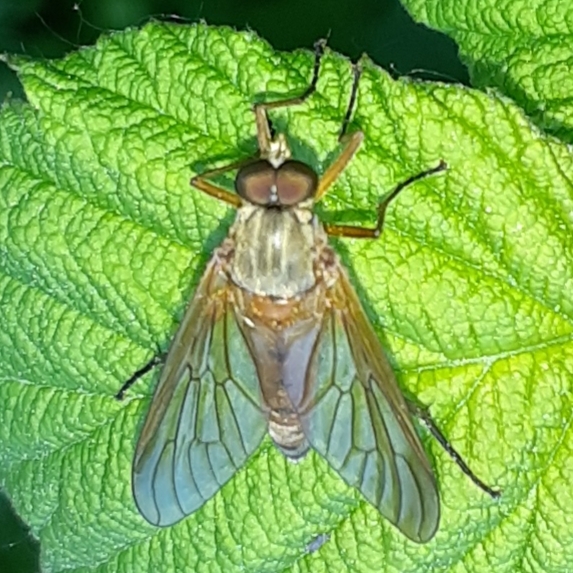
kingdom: Animalia
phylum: Arthropoda
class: Insecta
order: Diptera
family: Rhagionidae
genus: Rhagio
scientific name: Rhagio tringaria
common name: Marsh snipefly
